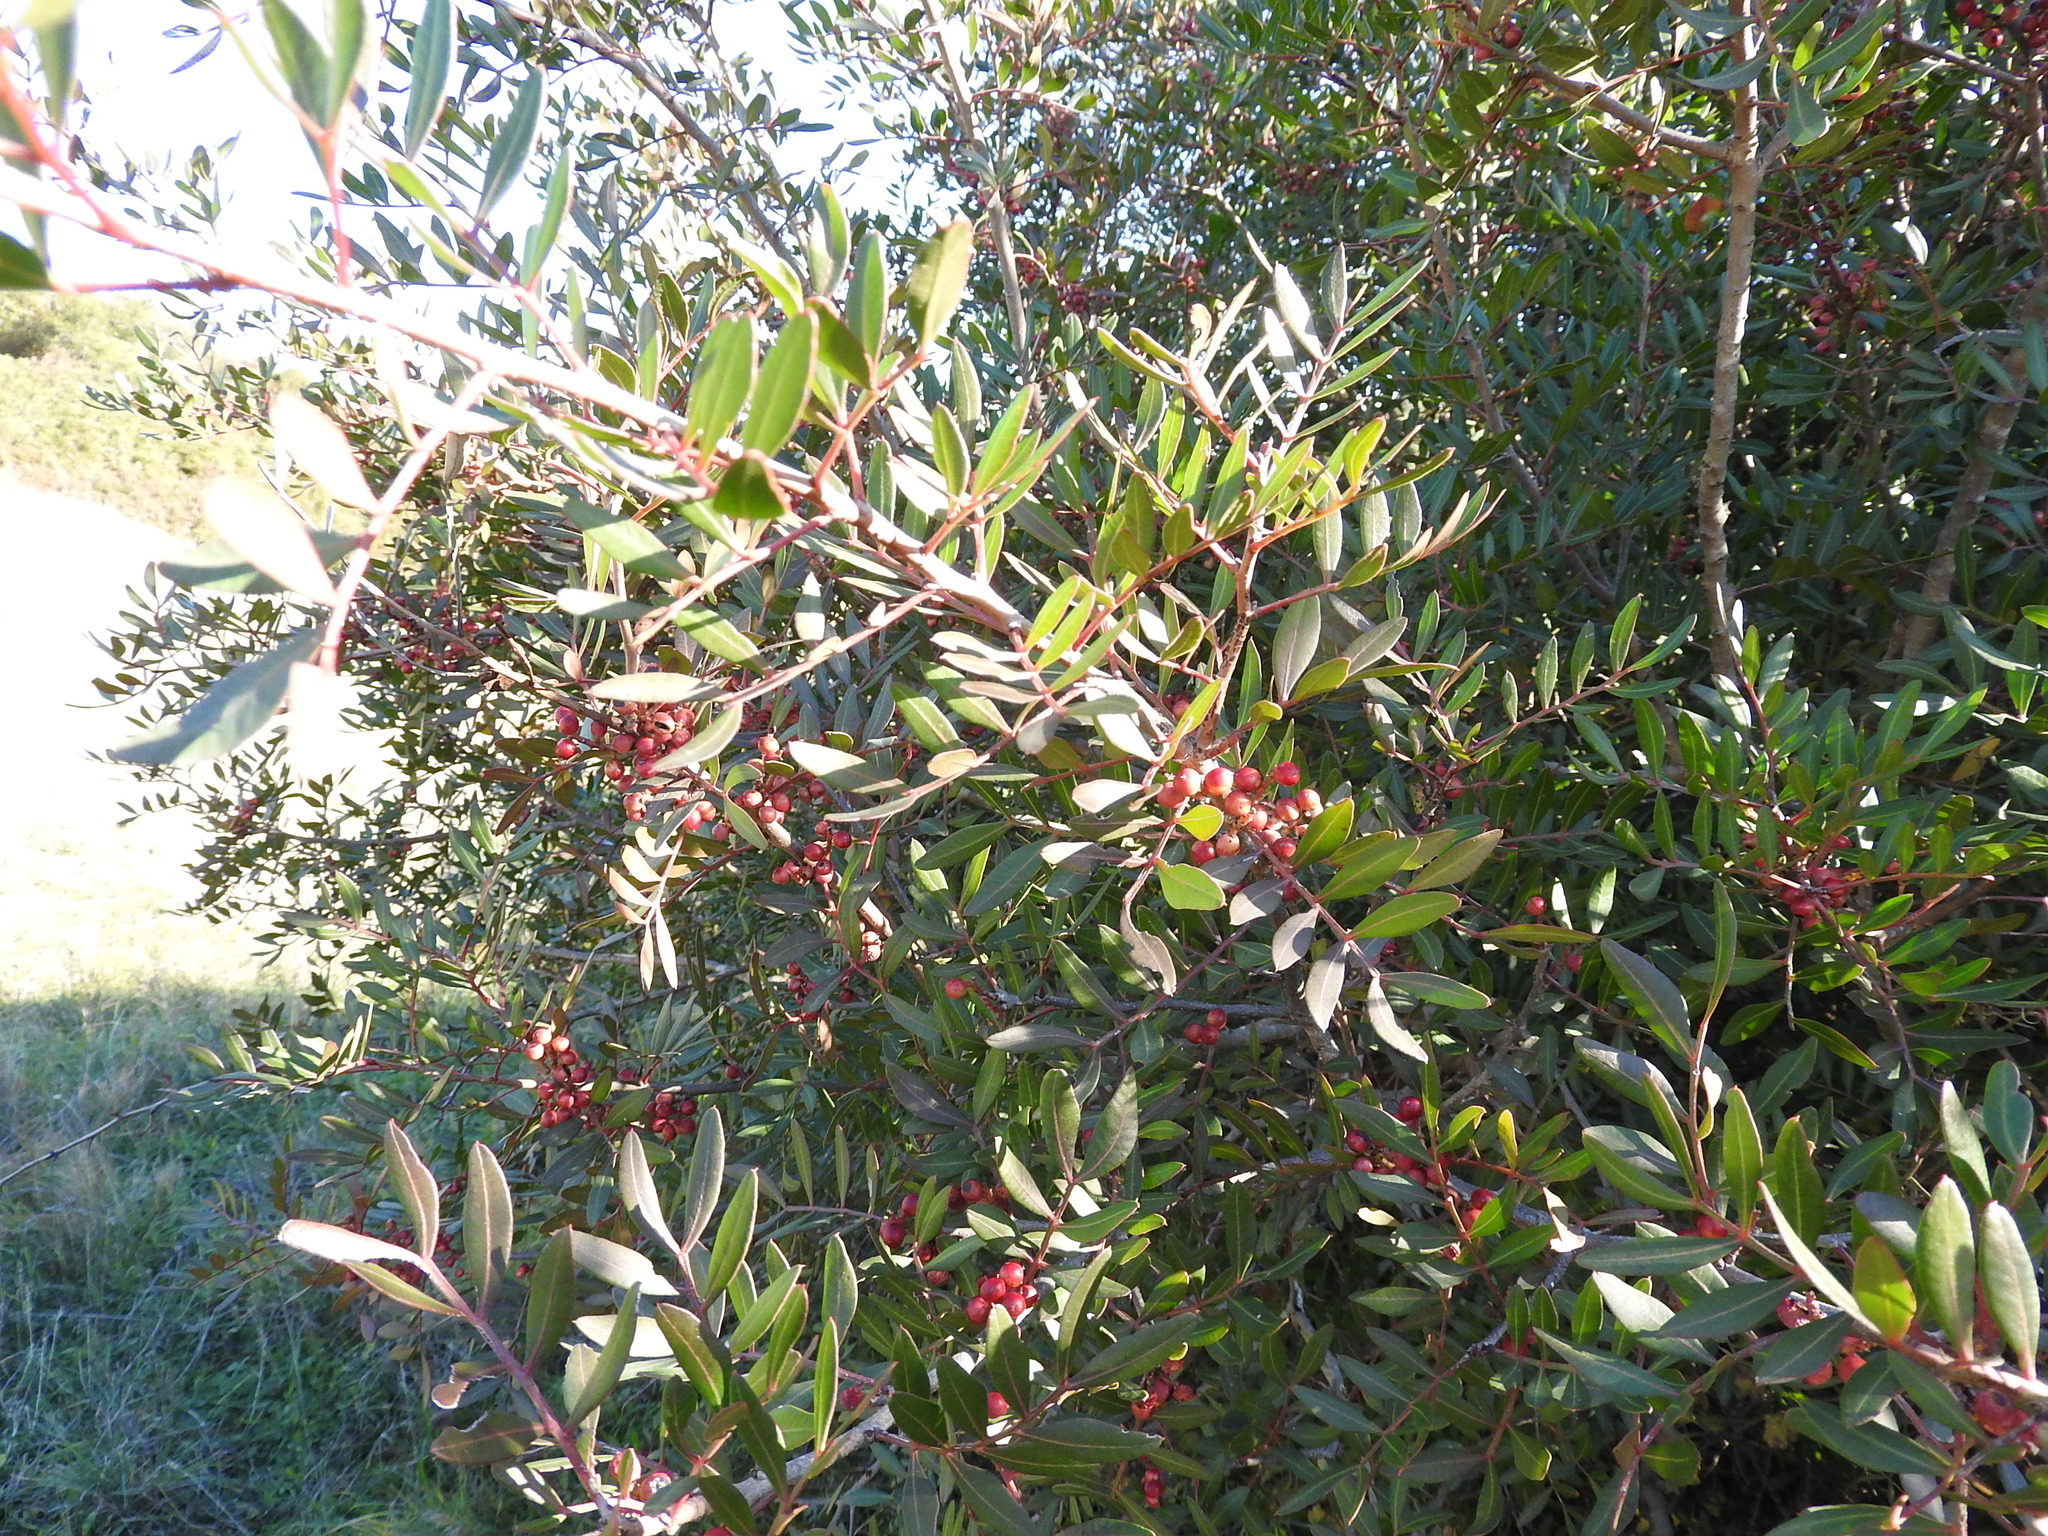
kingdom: Plantae
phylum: Tracheophyta
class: Magnoliopsida
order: Sapindales
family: Anacardiaceae
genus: Pistacia
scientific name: Pistacia lentiscus
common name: Lentisk
